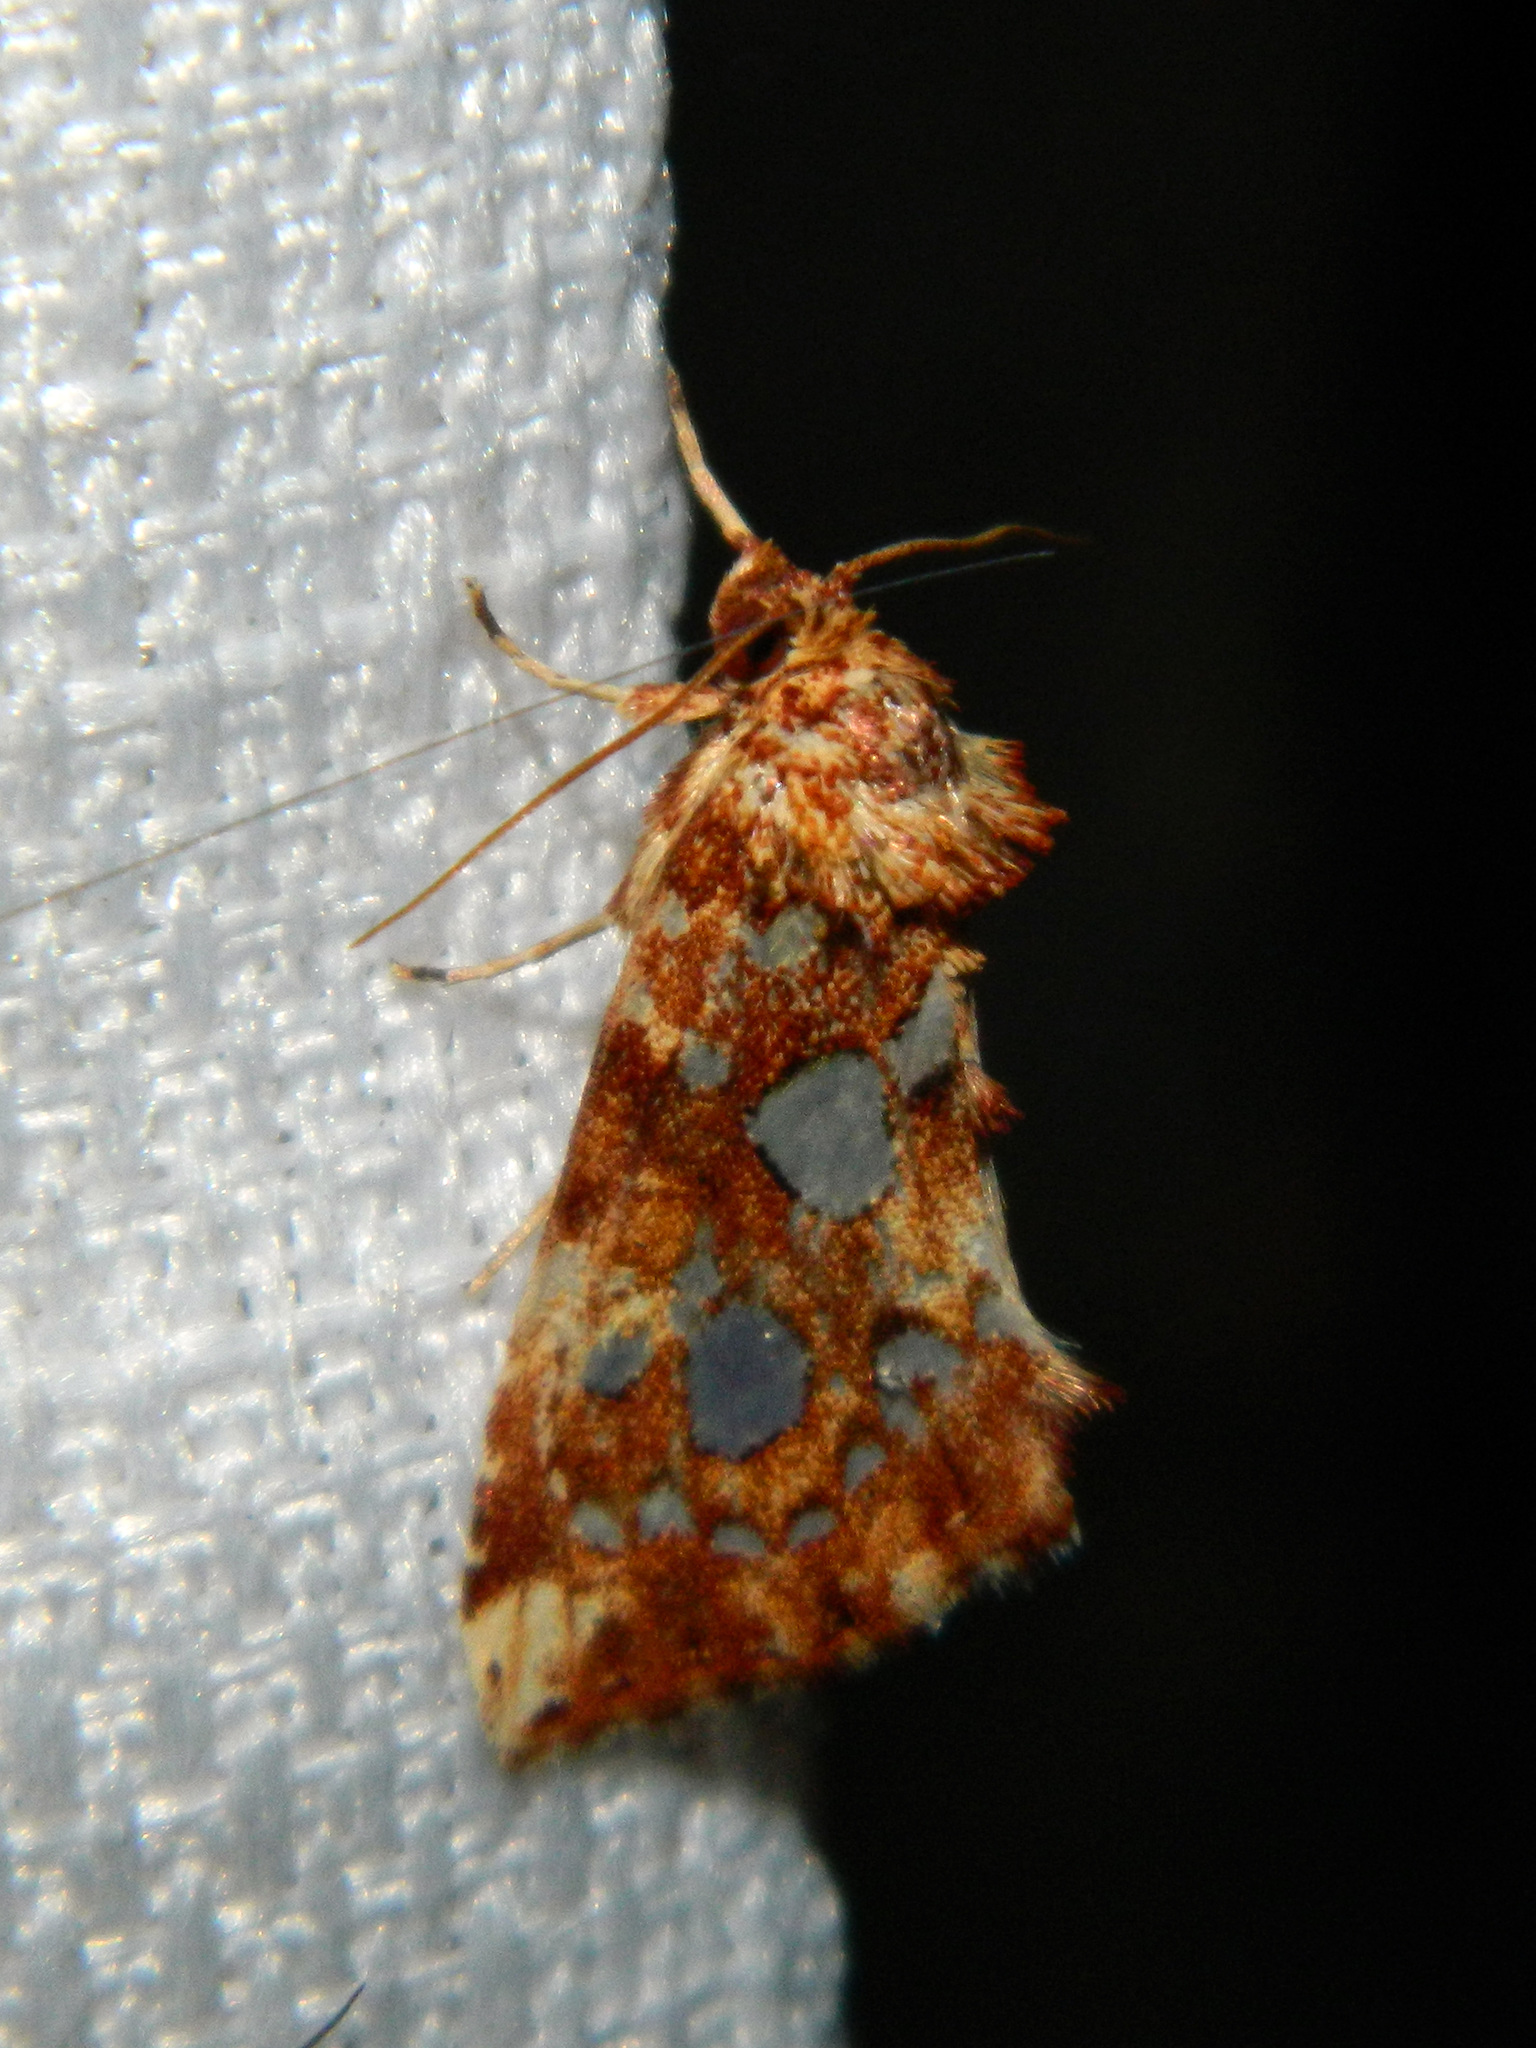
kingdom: Animalia
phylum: Arthropoda
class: Insecta
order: Lepidoptera
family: Noctuidae
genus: Callopistria
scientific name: Callopistria cordata
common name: Silver-spotted fern moth
